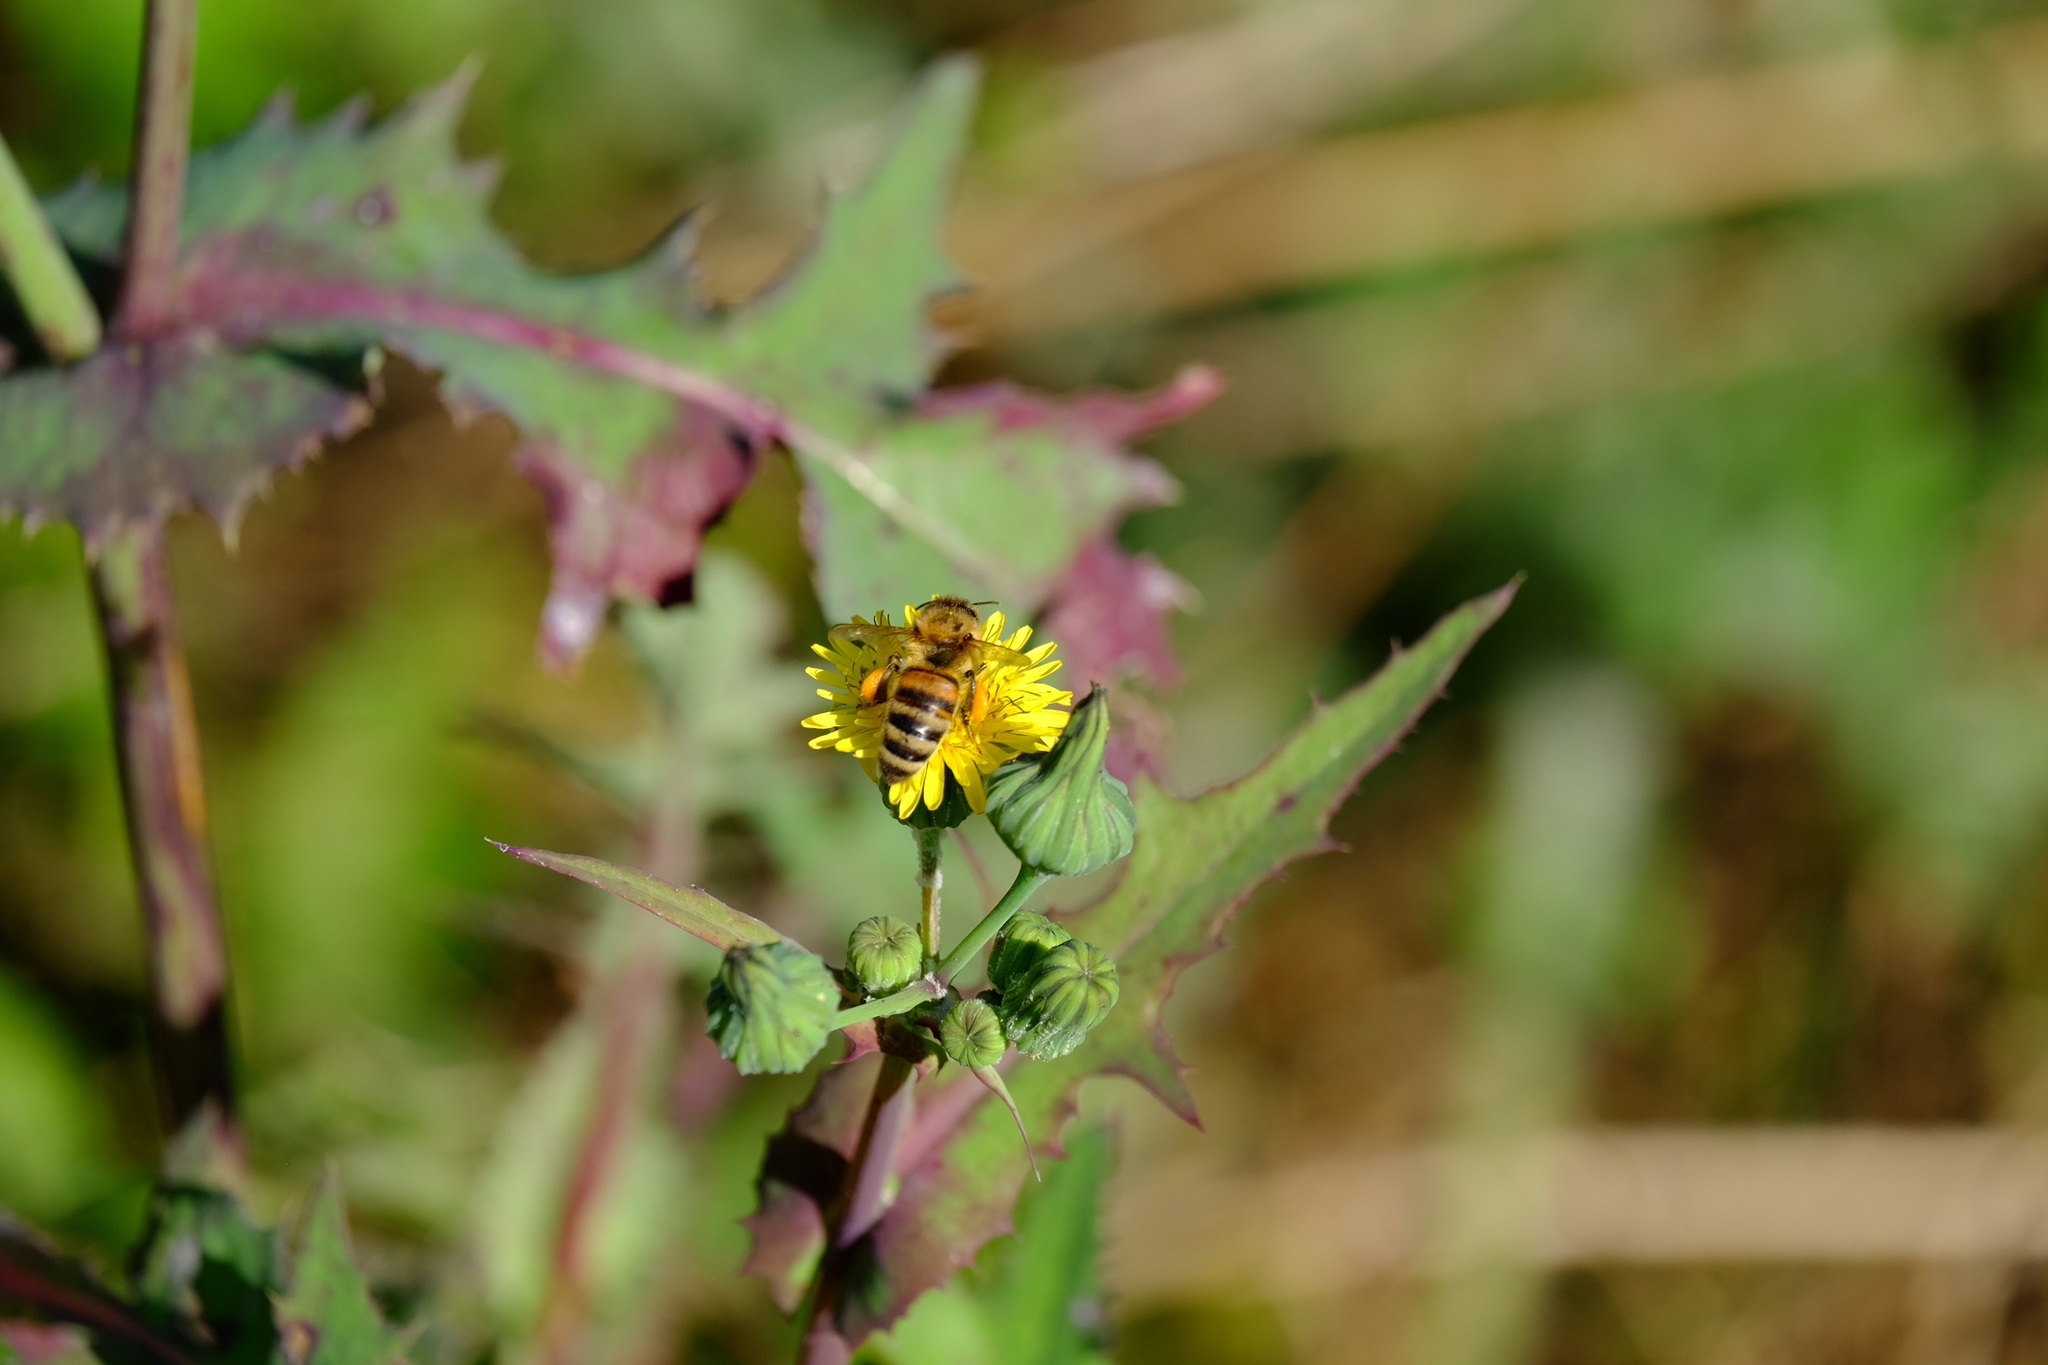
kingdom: Animalia
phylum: Arthropoda
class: Insecta
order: Hymenoptera
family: Apidae
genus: Apis
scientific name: Apis mellifera
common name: Honey bee
